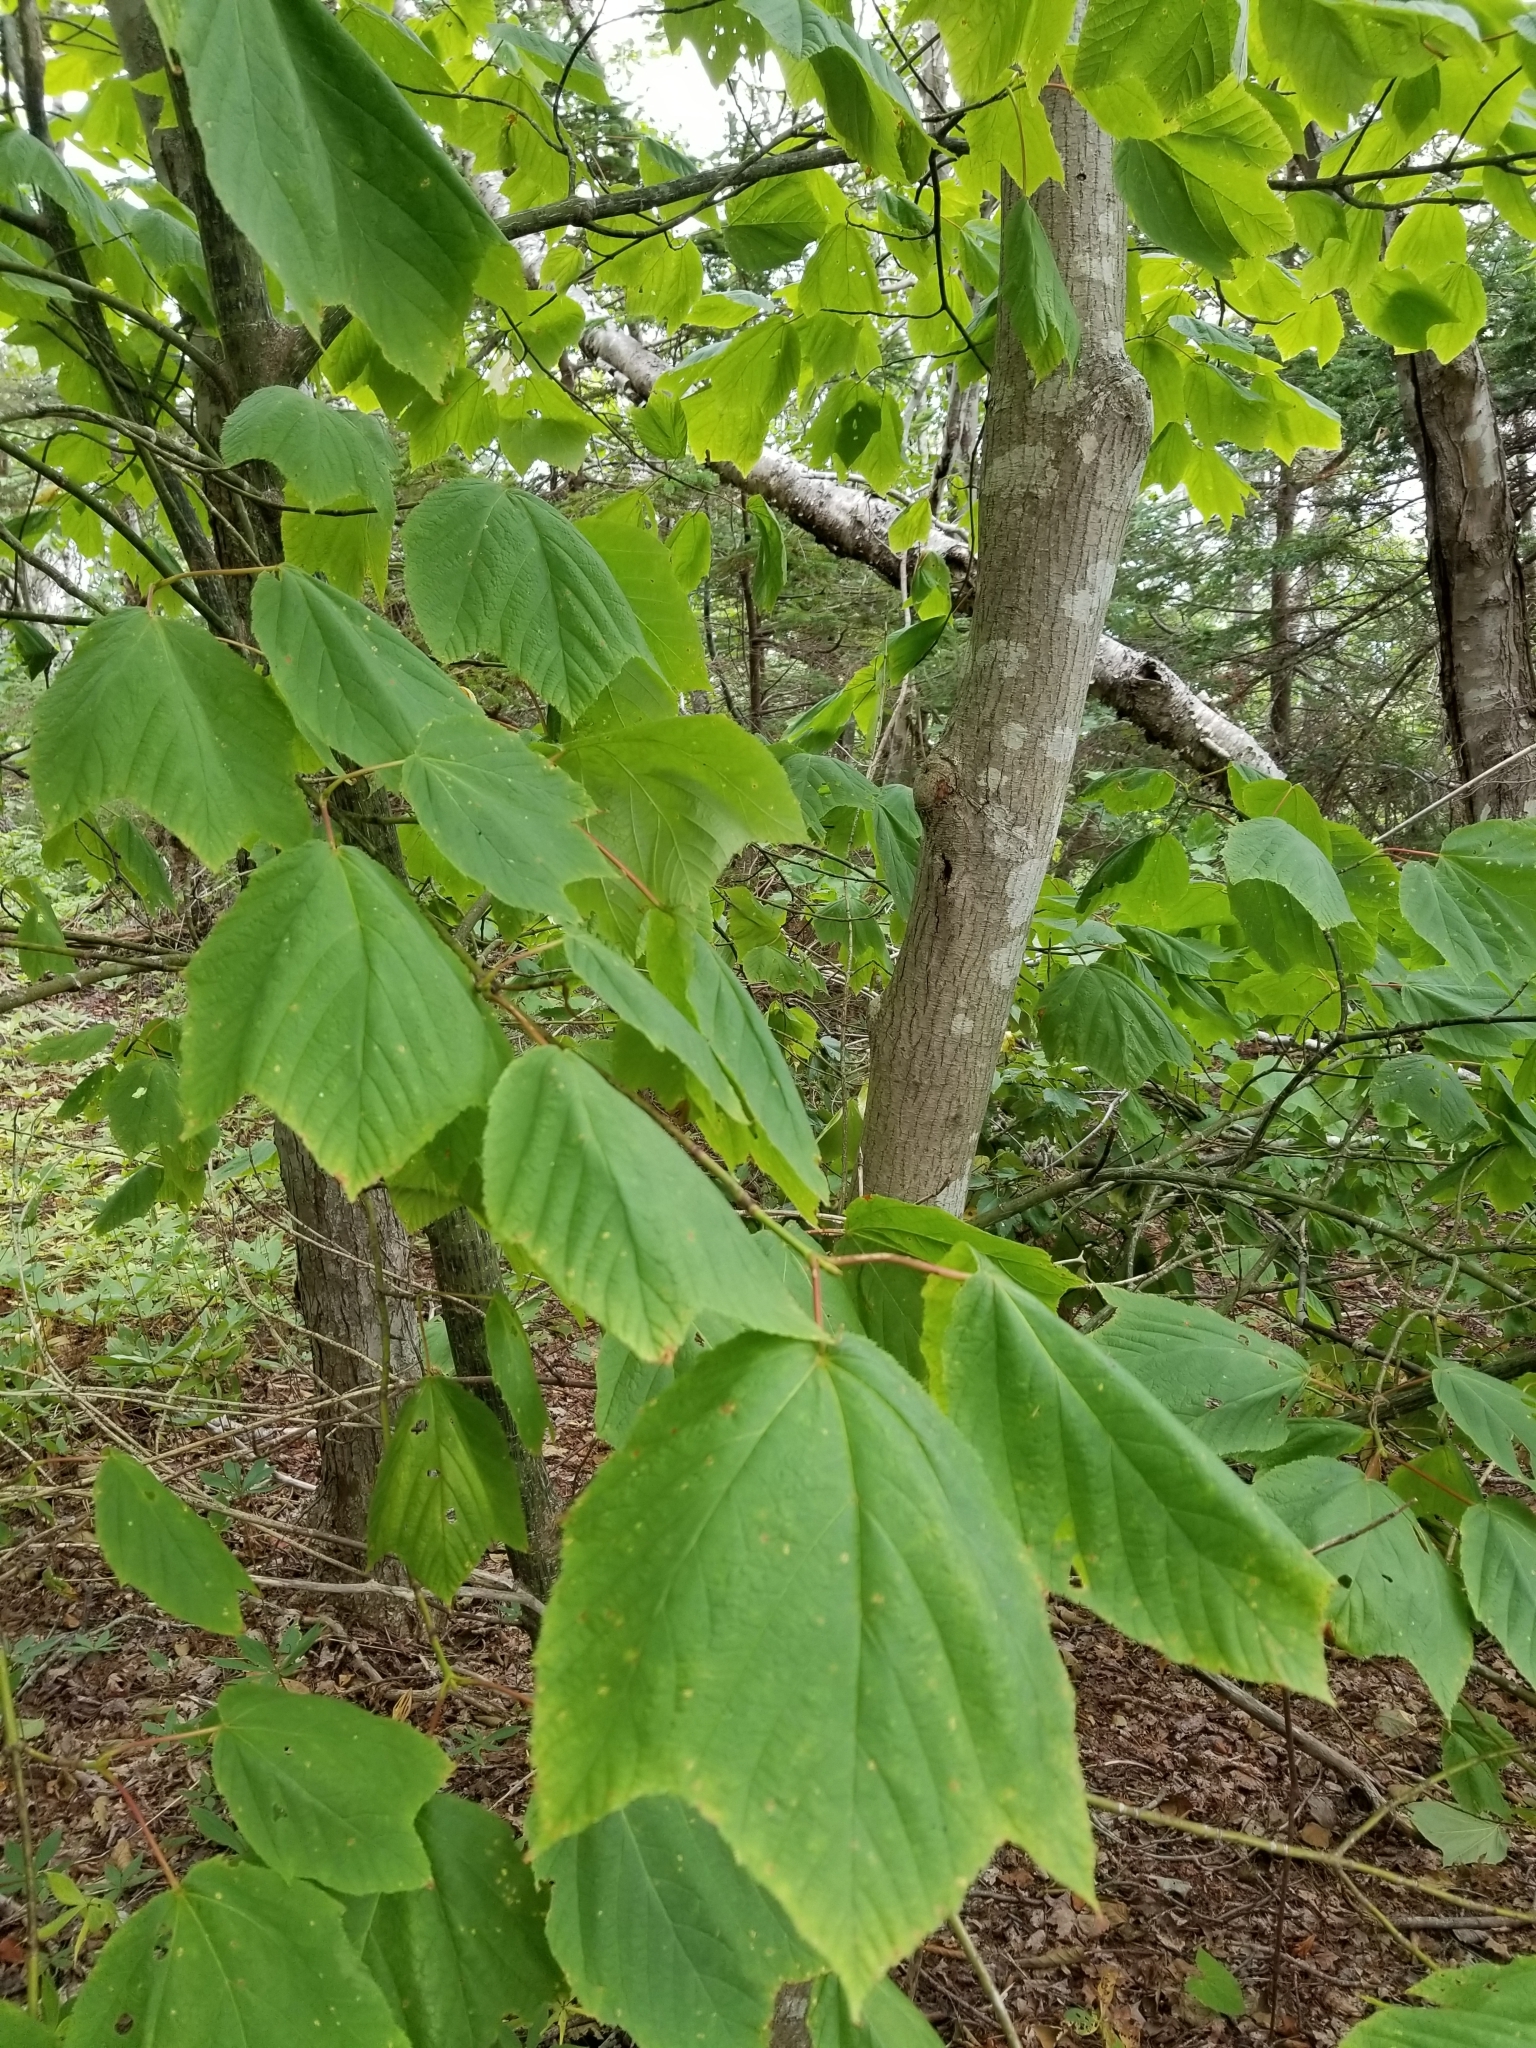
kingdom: Plantae
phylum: Tracheophyta
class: Magnoliopsida
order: Sapindales
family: Sapindaceae
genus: Acer
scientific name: Acer pensylvanicum
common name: Moosewood
